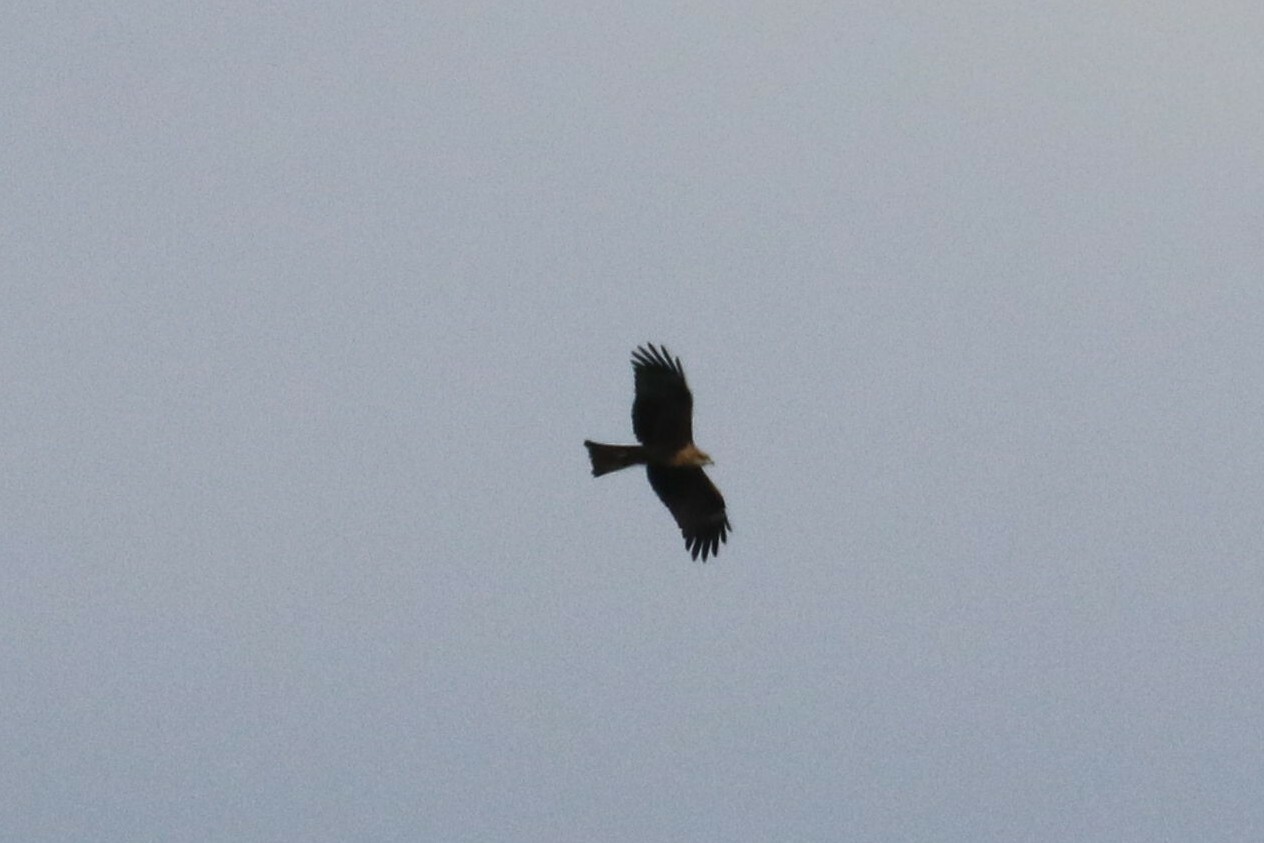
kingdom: Animalia
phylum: Chordata
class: Aves
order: Accipitriformes
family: Accipitridae
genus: Milvus
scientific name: Milvus migrans
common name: Black kite
